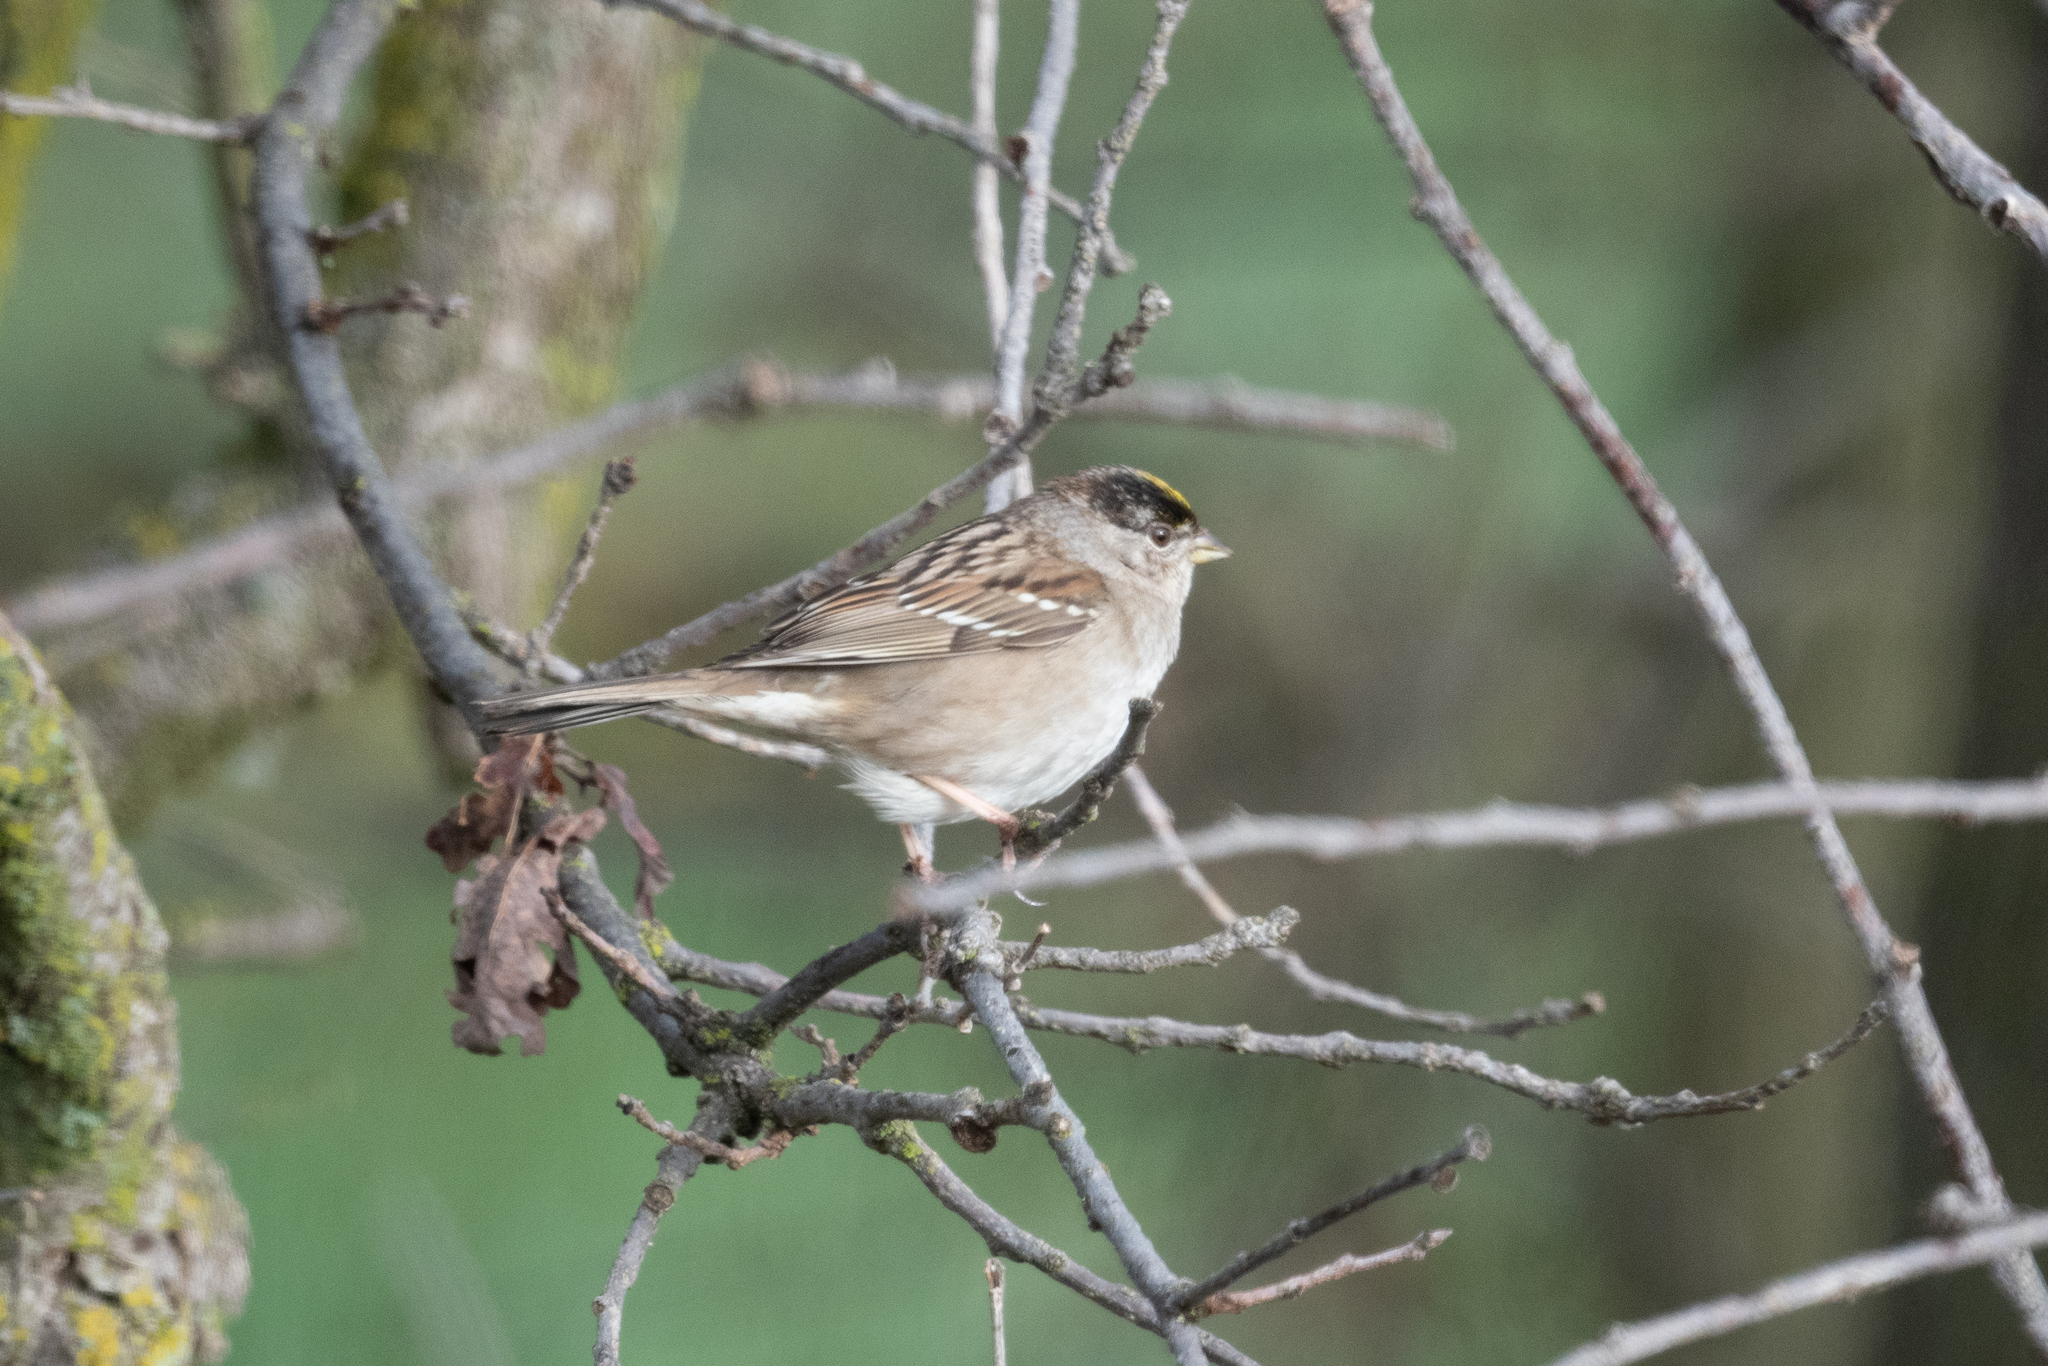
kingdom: Animalia
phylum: Chordata
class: Aves
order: Passeriformes
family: Passerellidae
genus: Zonotrichia
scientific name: Zonotrichia atricapilla
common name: Golden-crowned sparrow
